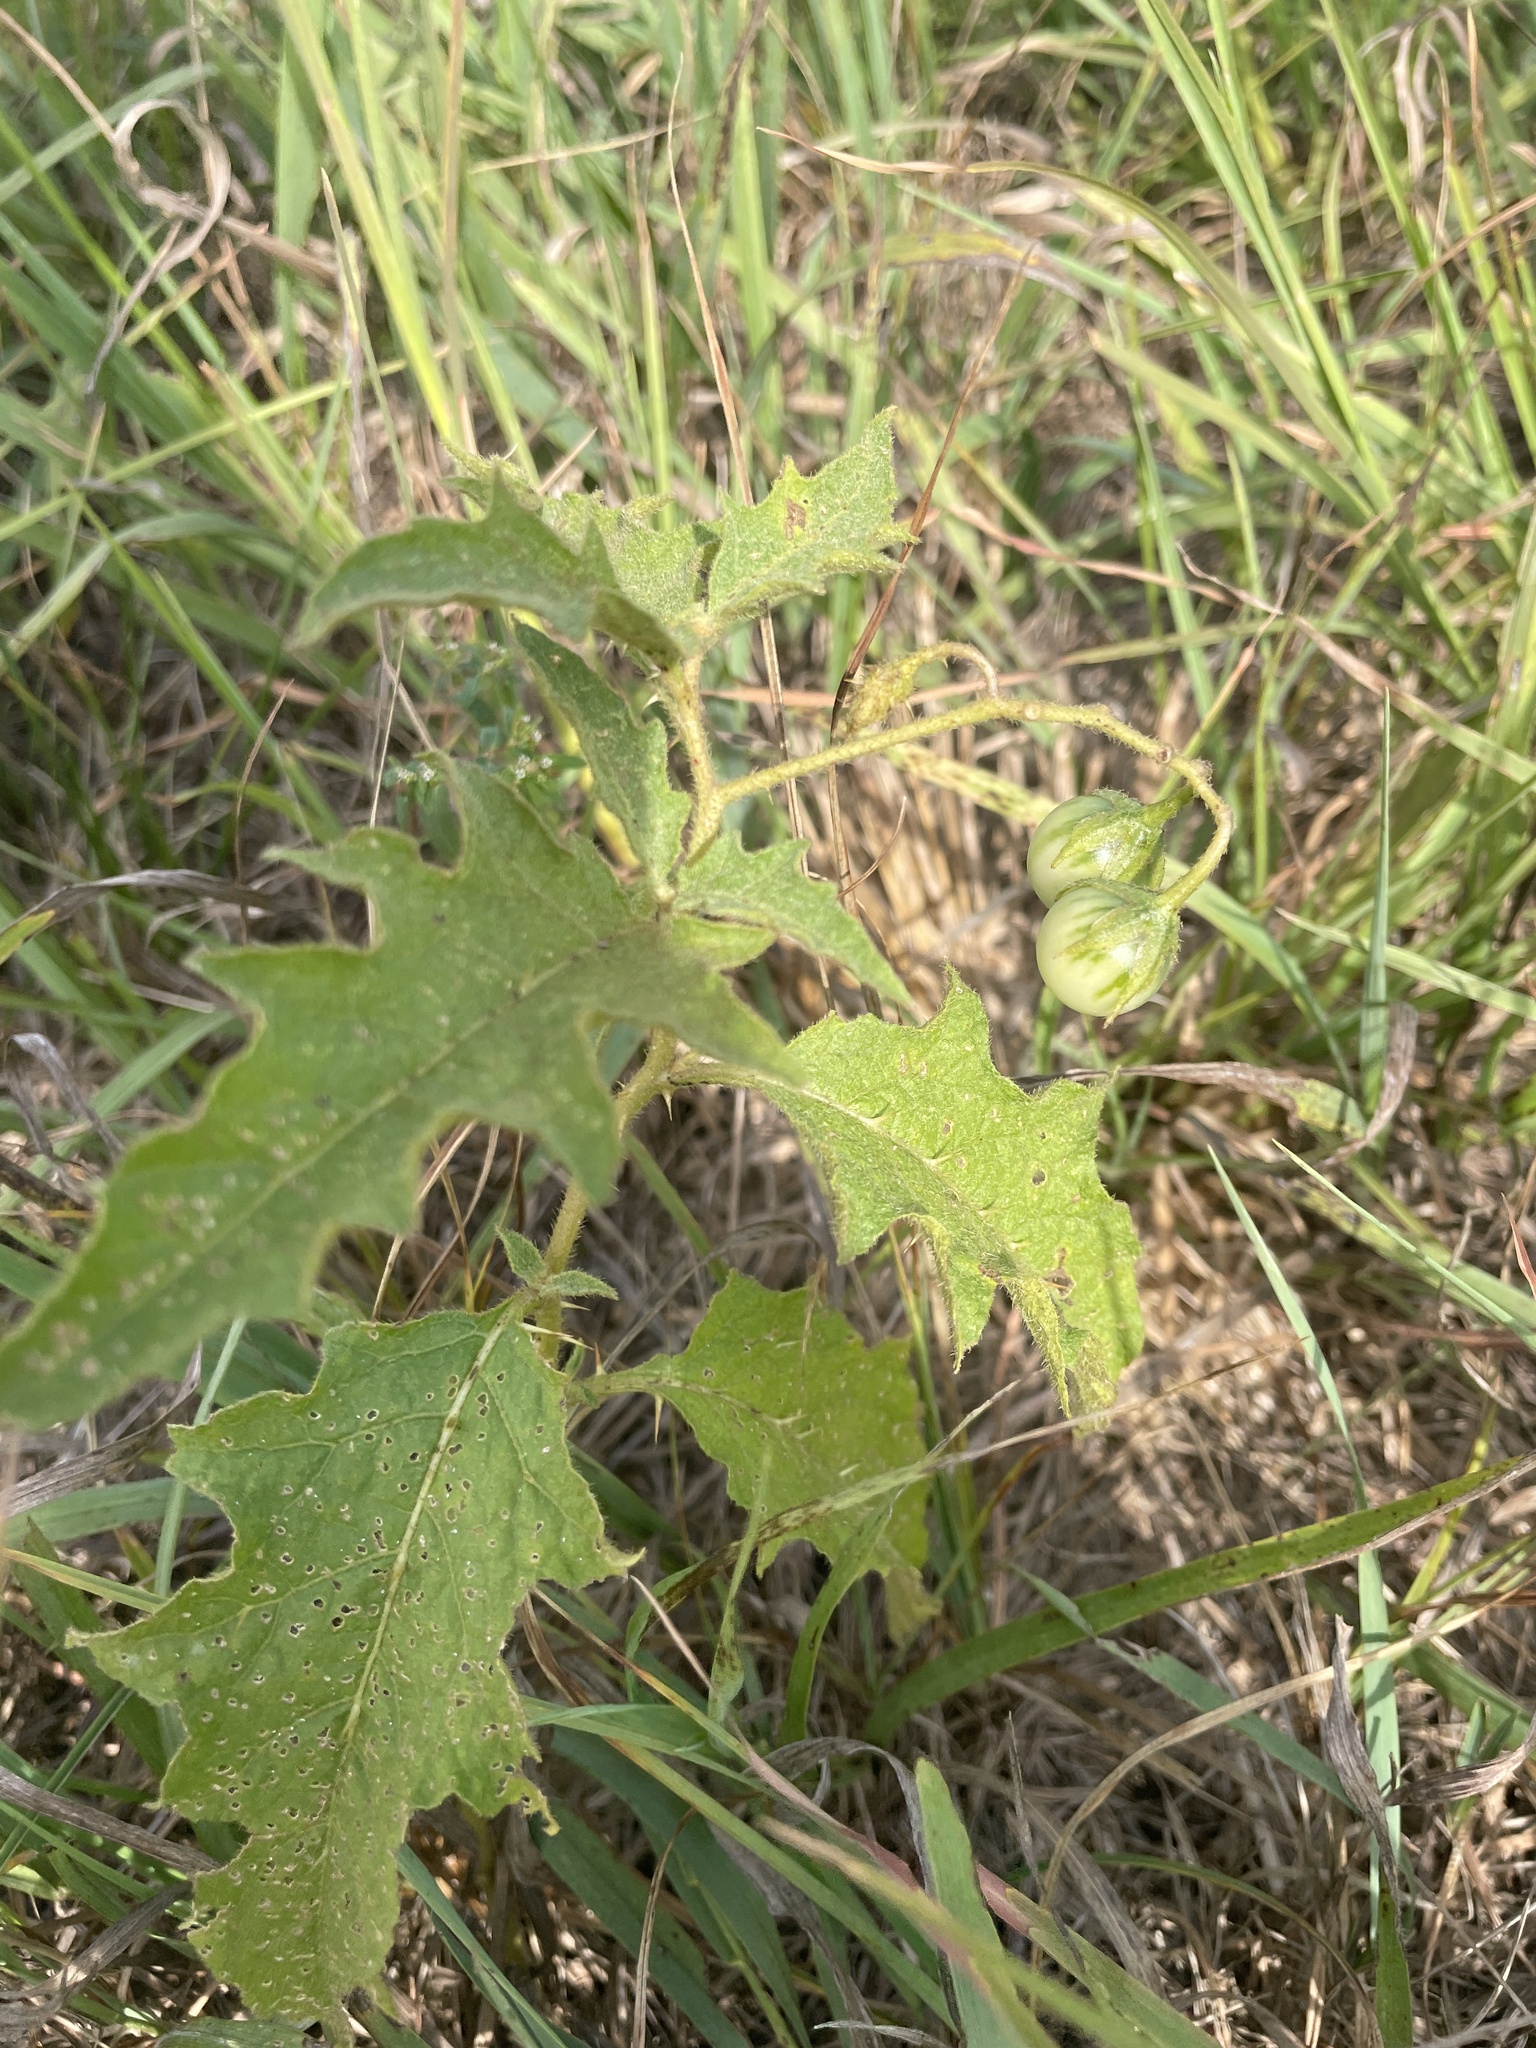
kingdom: Plantae
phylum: Tracheophyta
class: Magnoliopsida
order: Solanales
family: Solanaceae
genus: Solanum
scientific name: Solanum carolinense
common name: Horse-nettle
